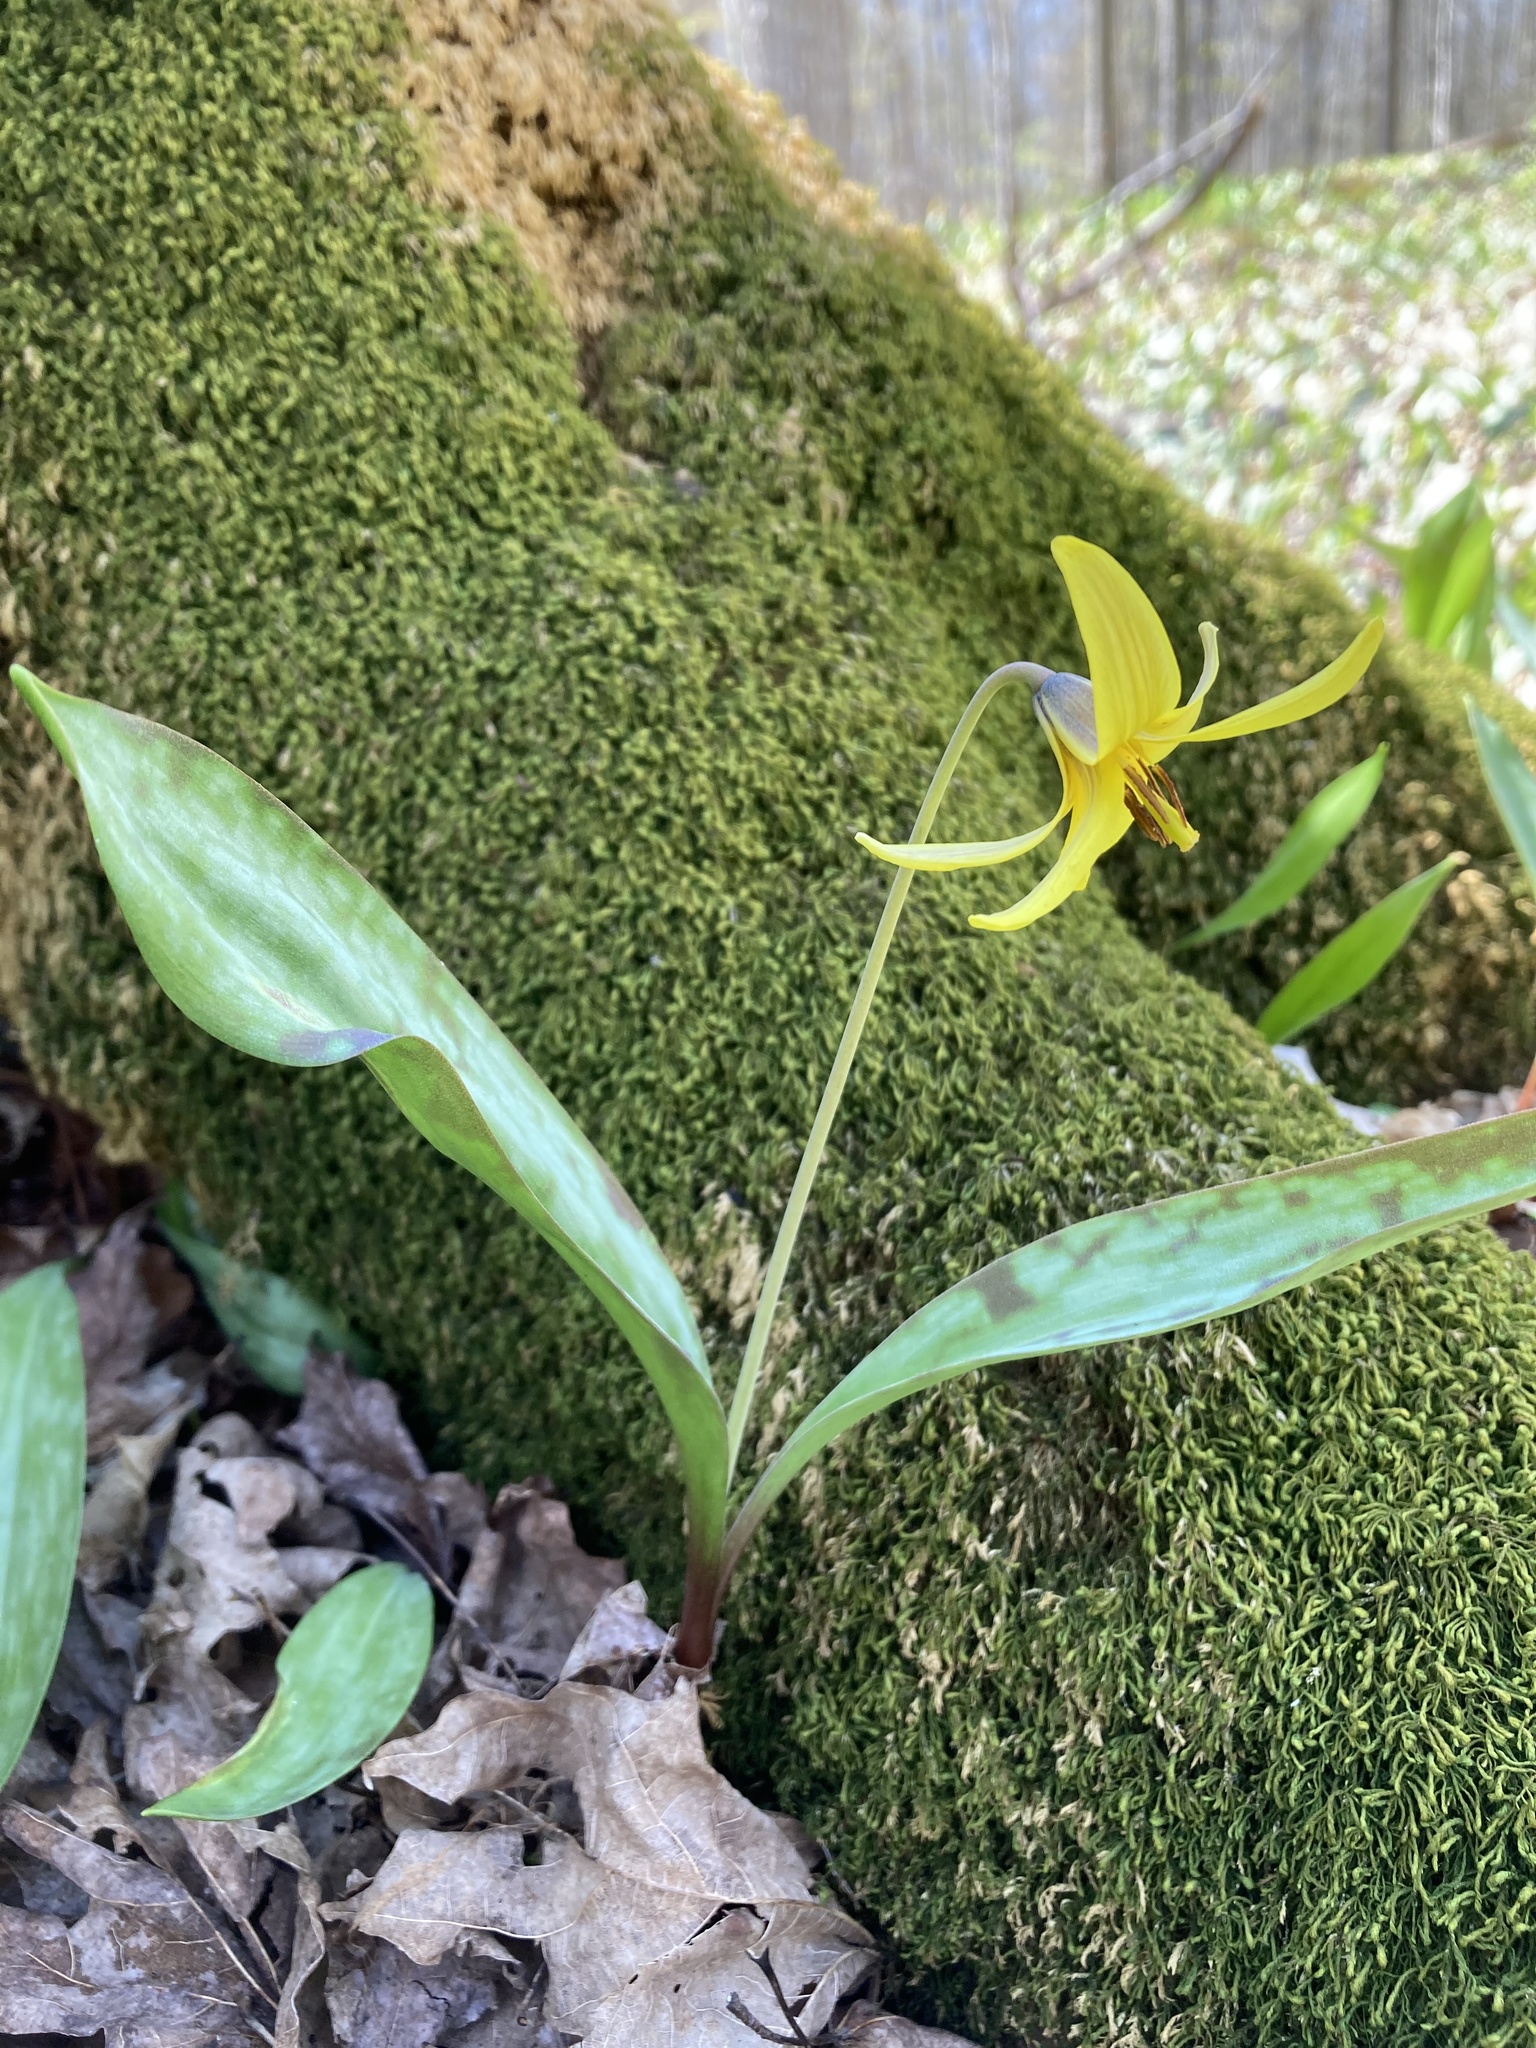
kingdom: Plantae
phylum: Tracheophyta
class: Liliopsida
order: Liliales
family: Liliaceae
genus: Erythronium
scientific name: Erythronium americanum
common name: Yellow adder's-tongue
